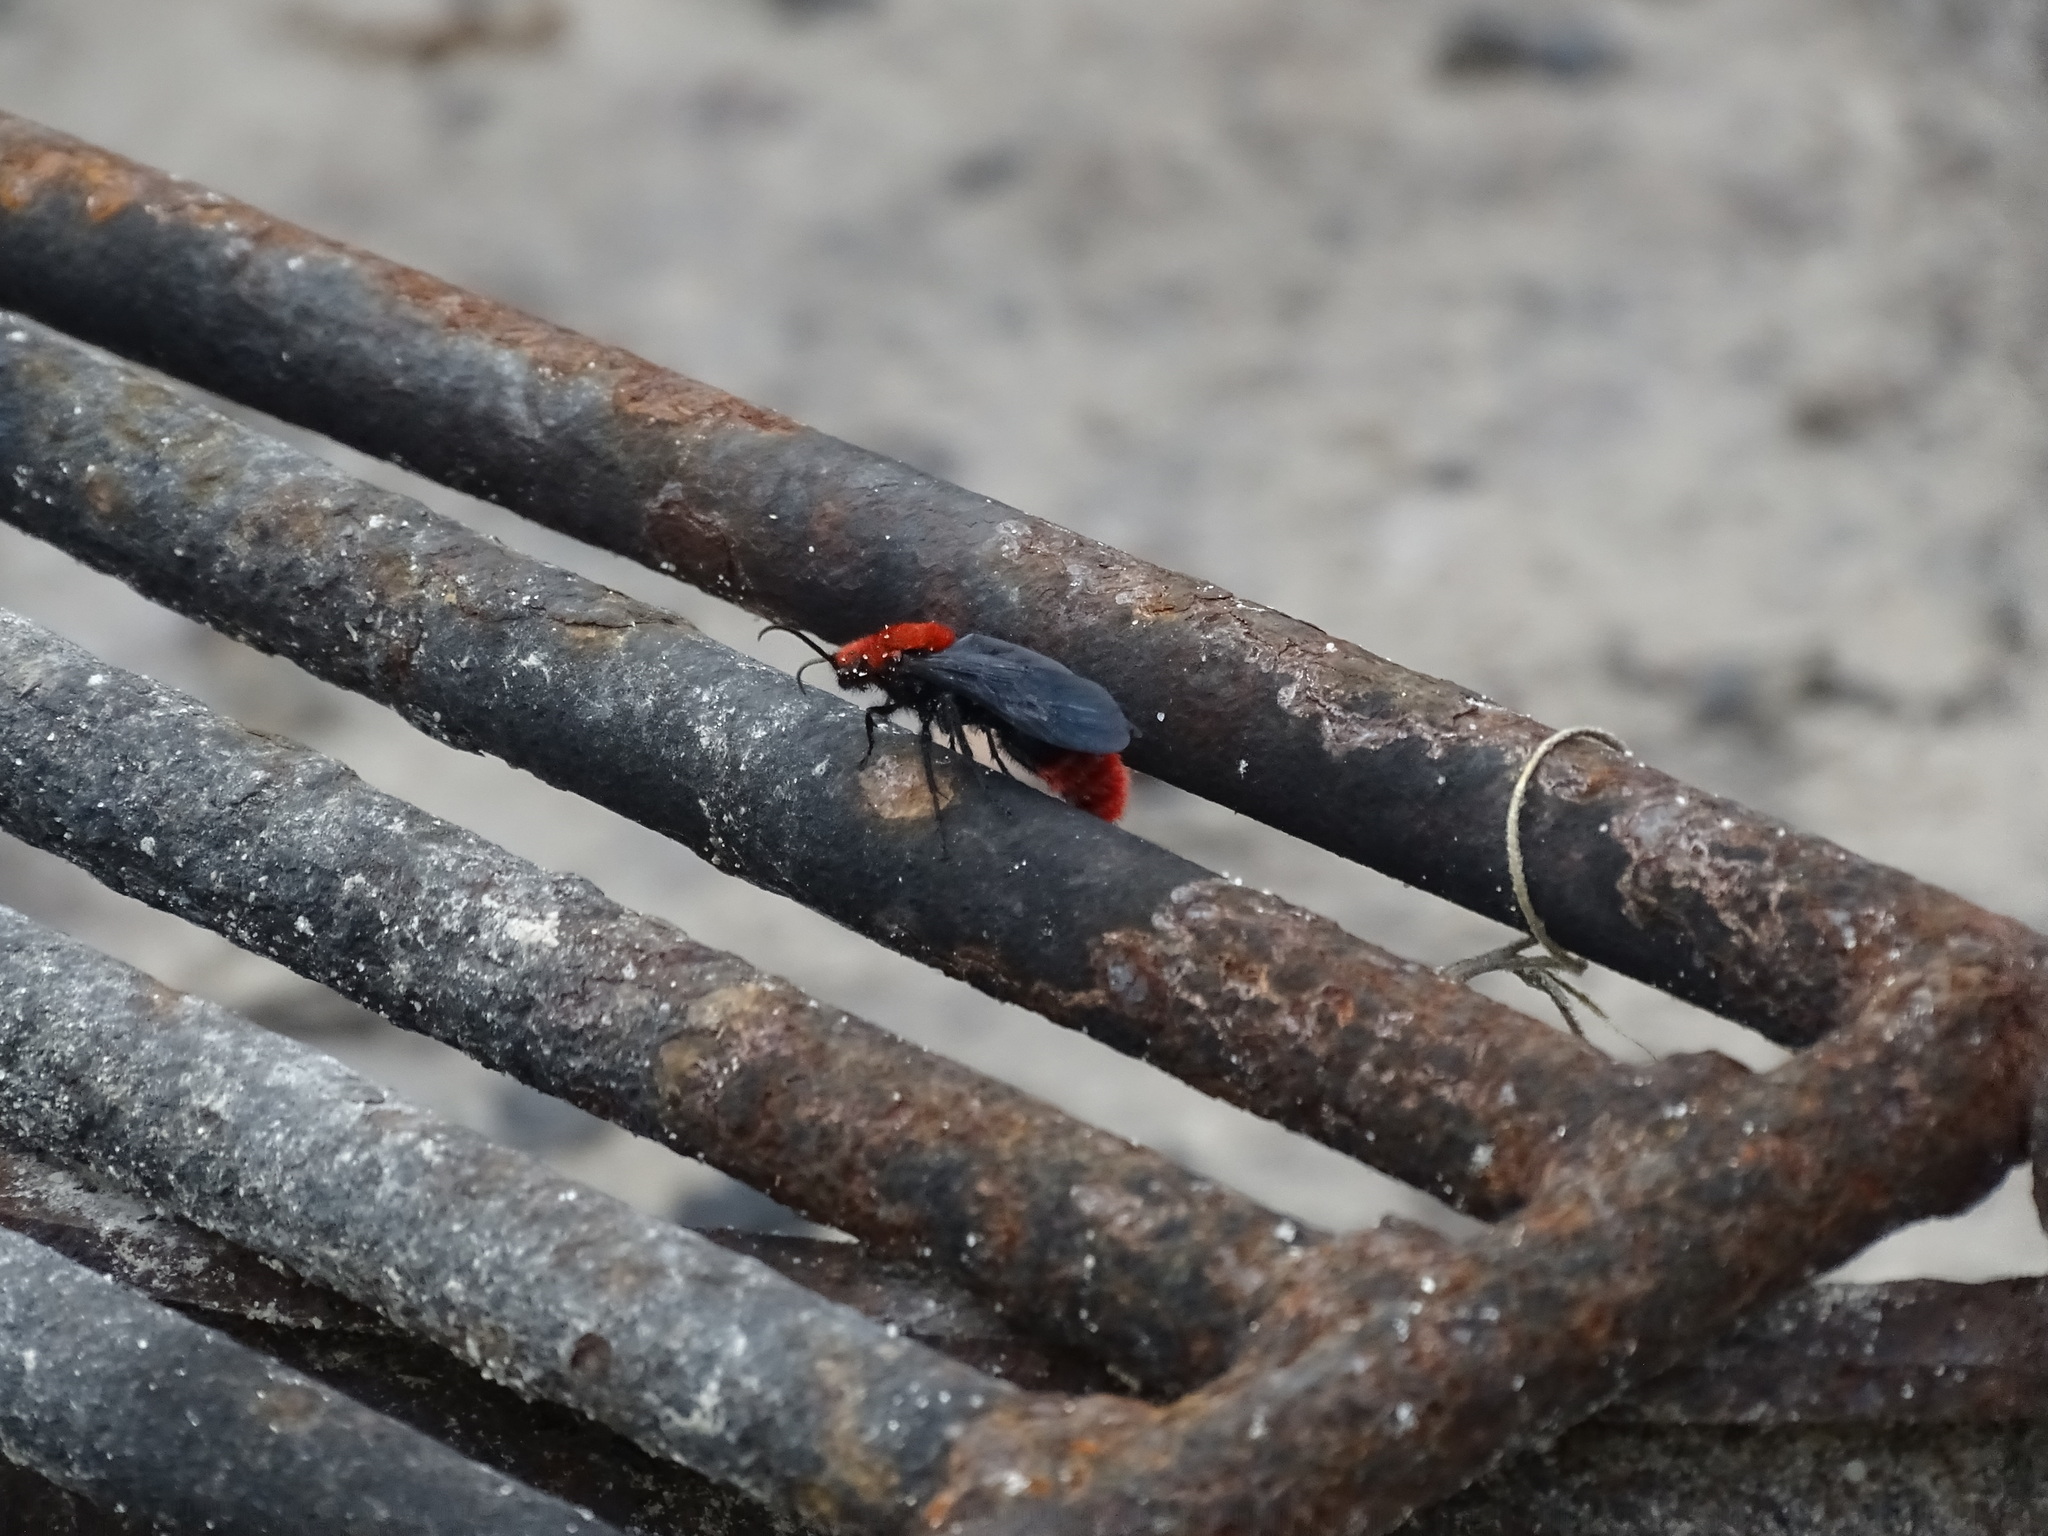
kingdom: Animalia
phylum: Arthropoda
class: Insecta
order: Hymenoptera
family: Mutillidae
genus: Dasymutilla
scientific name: Dasymutilla occidentalis
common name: Common eastern velvet ant
